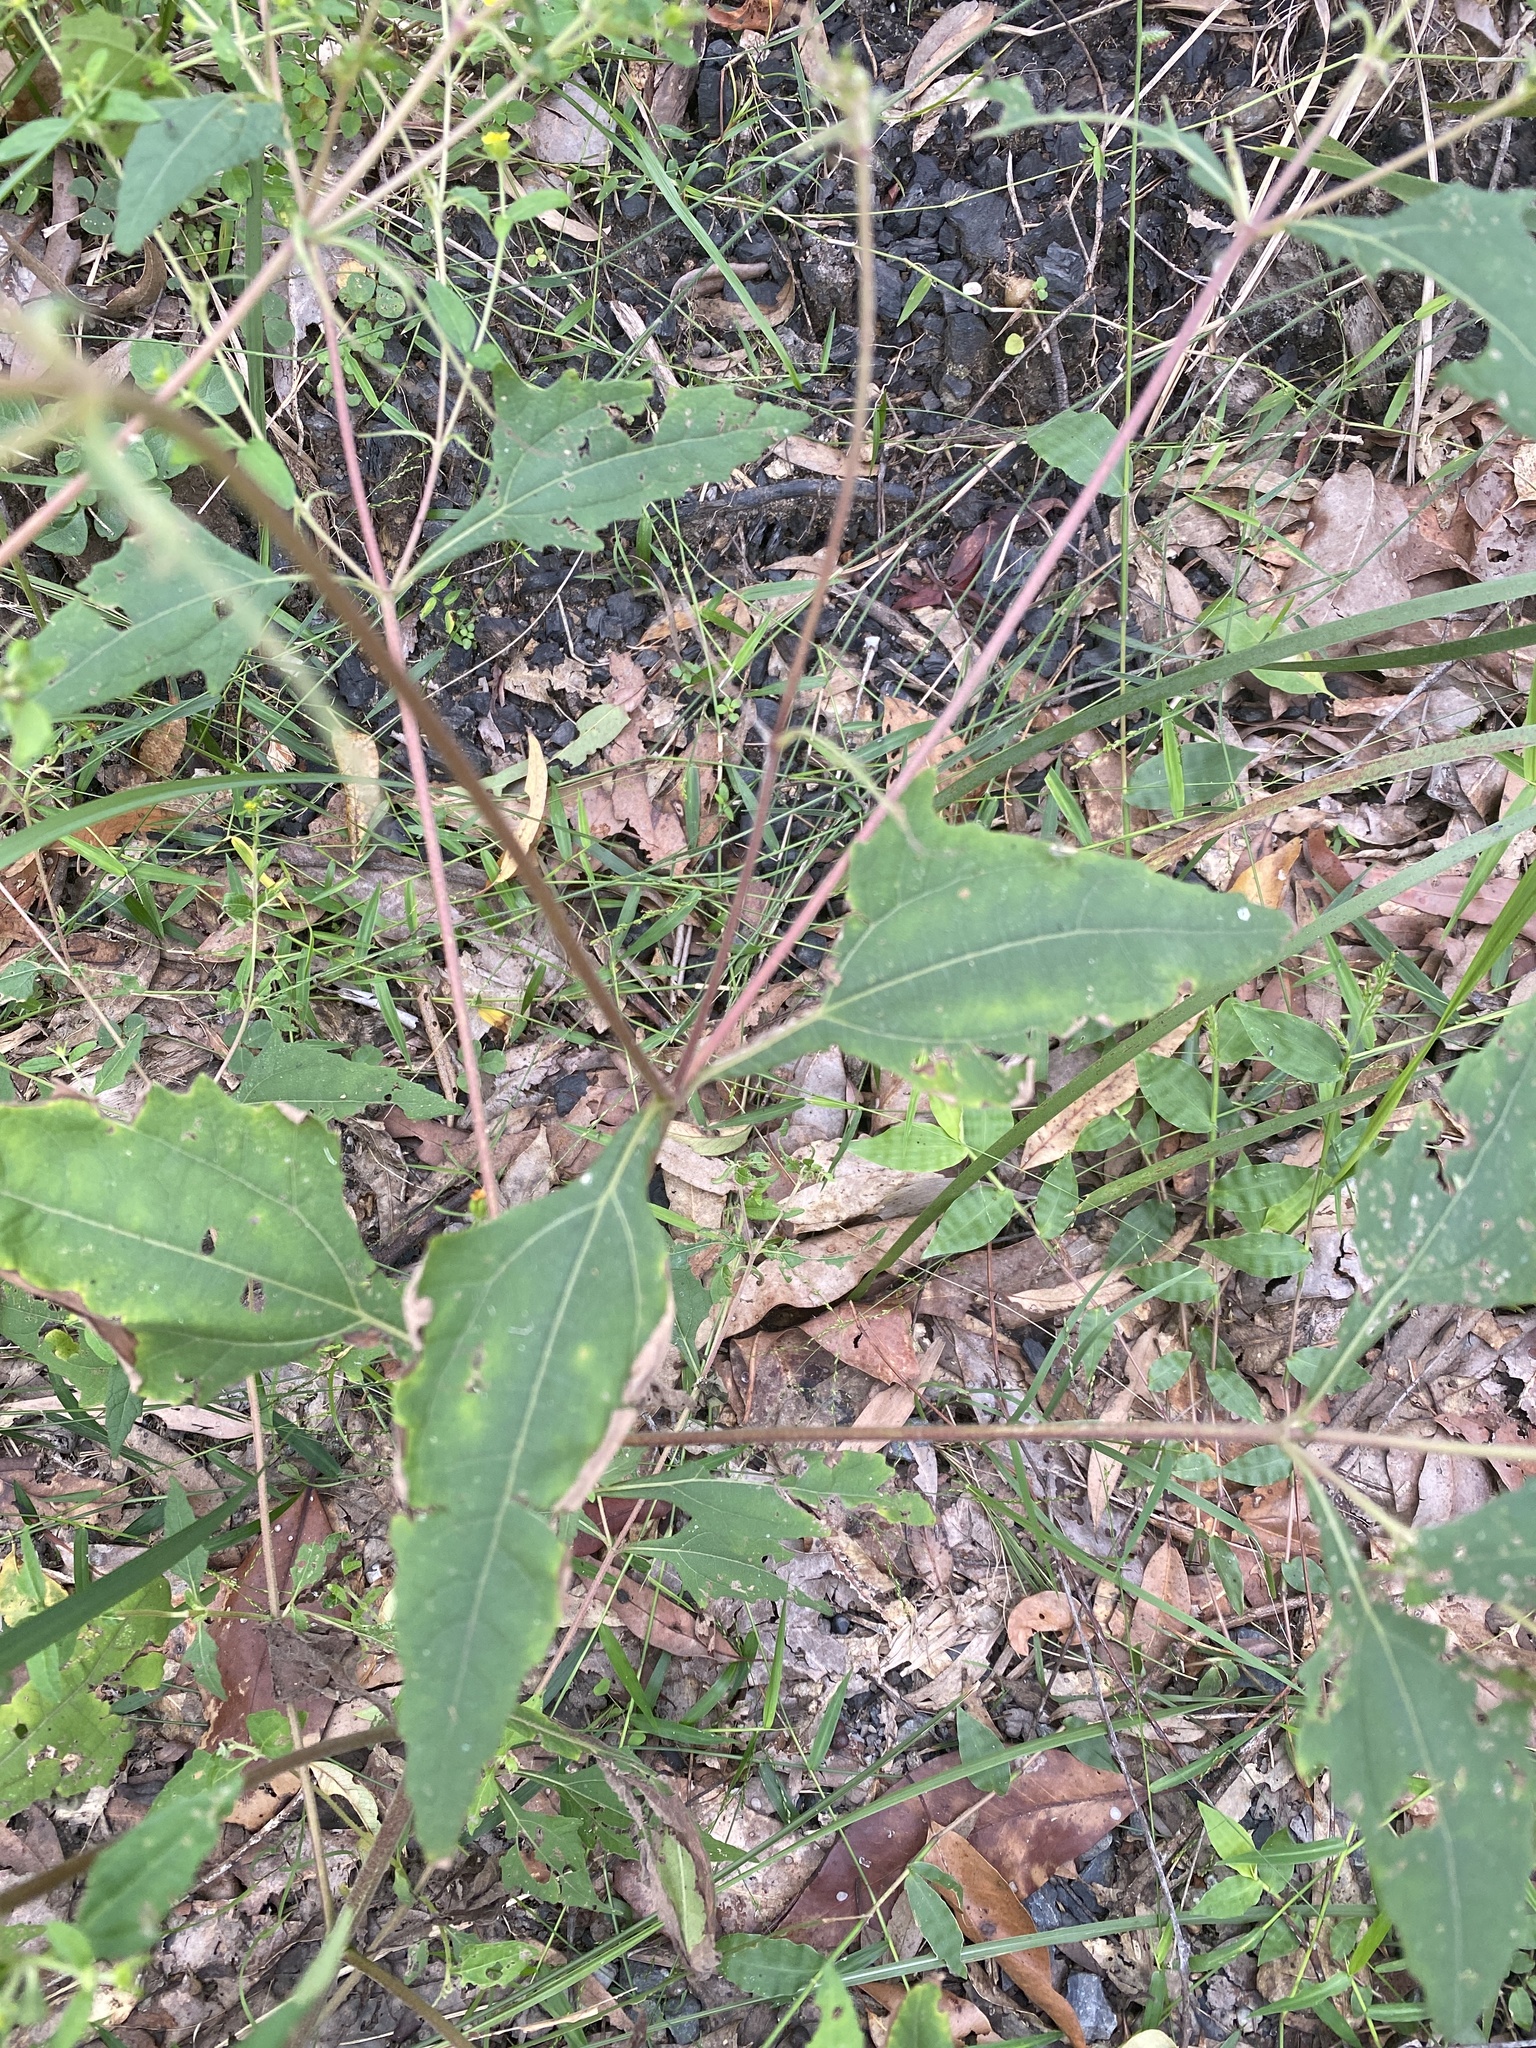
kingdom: Plantae
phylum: Tracheophyta
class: Magnoliopsida
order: Asterales
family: Asteraceae
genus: Sigesbeckia
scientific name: Sigesbeckia orientalis
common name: Eastern st paul's-wort
